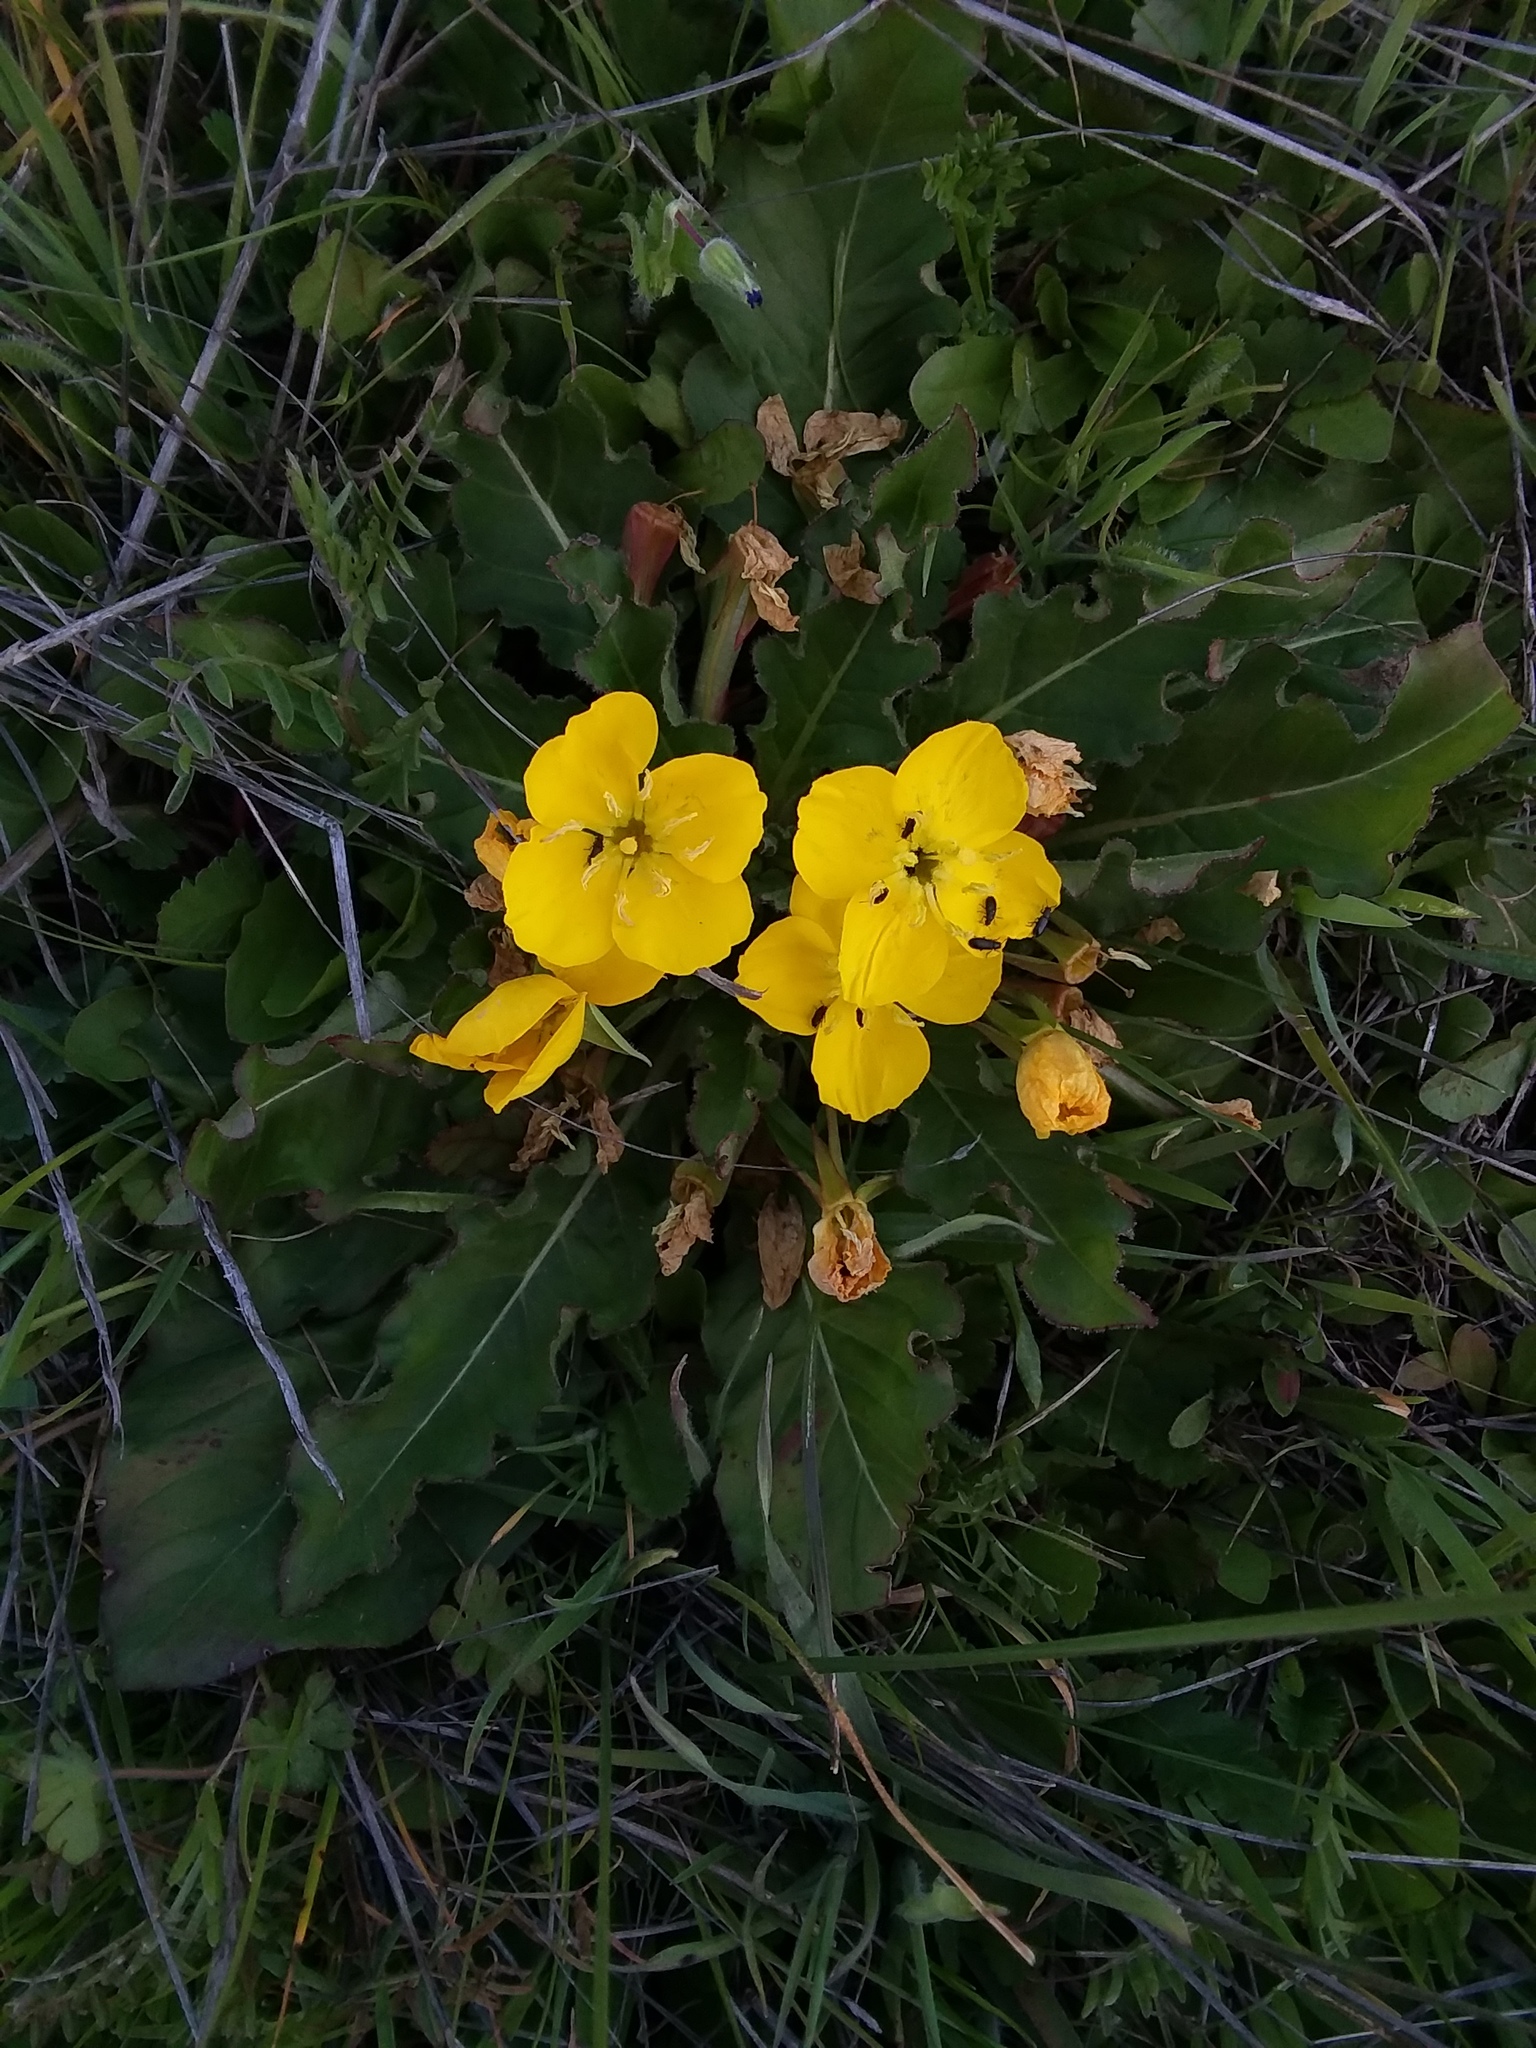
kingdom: Plantae
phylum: Tracheophyta
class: Magnoliopsida
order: Myrtales
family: Onagraceae
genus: Taraxia
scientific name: Taraxia ovata
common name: Goldeneggs
